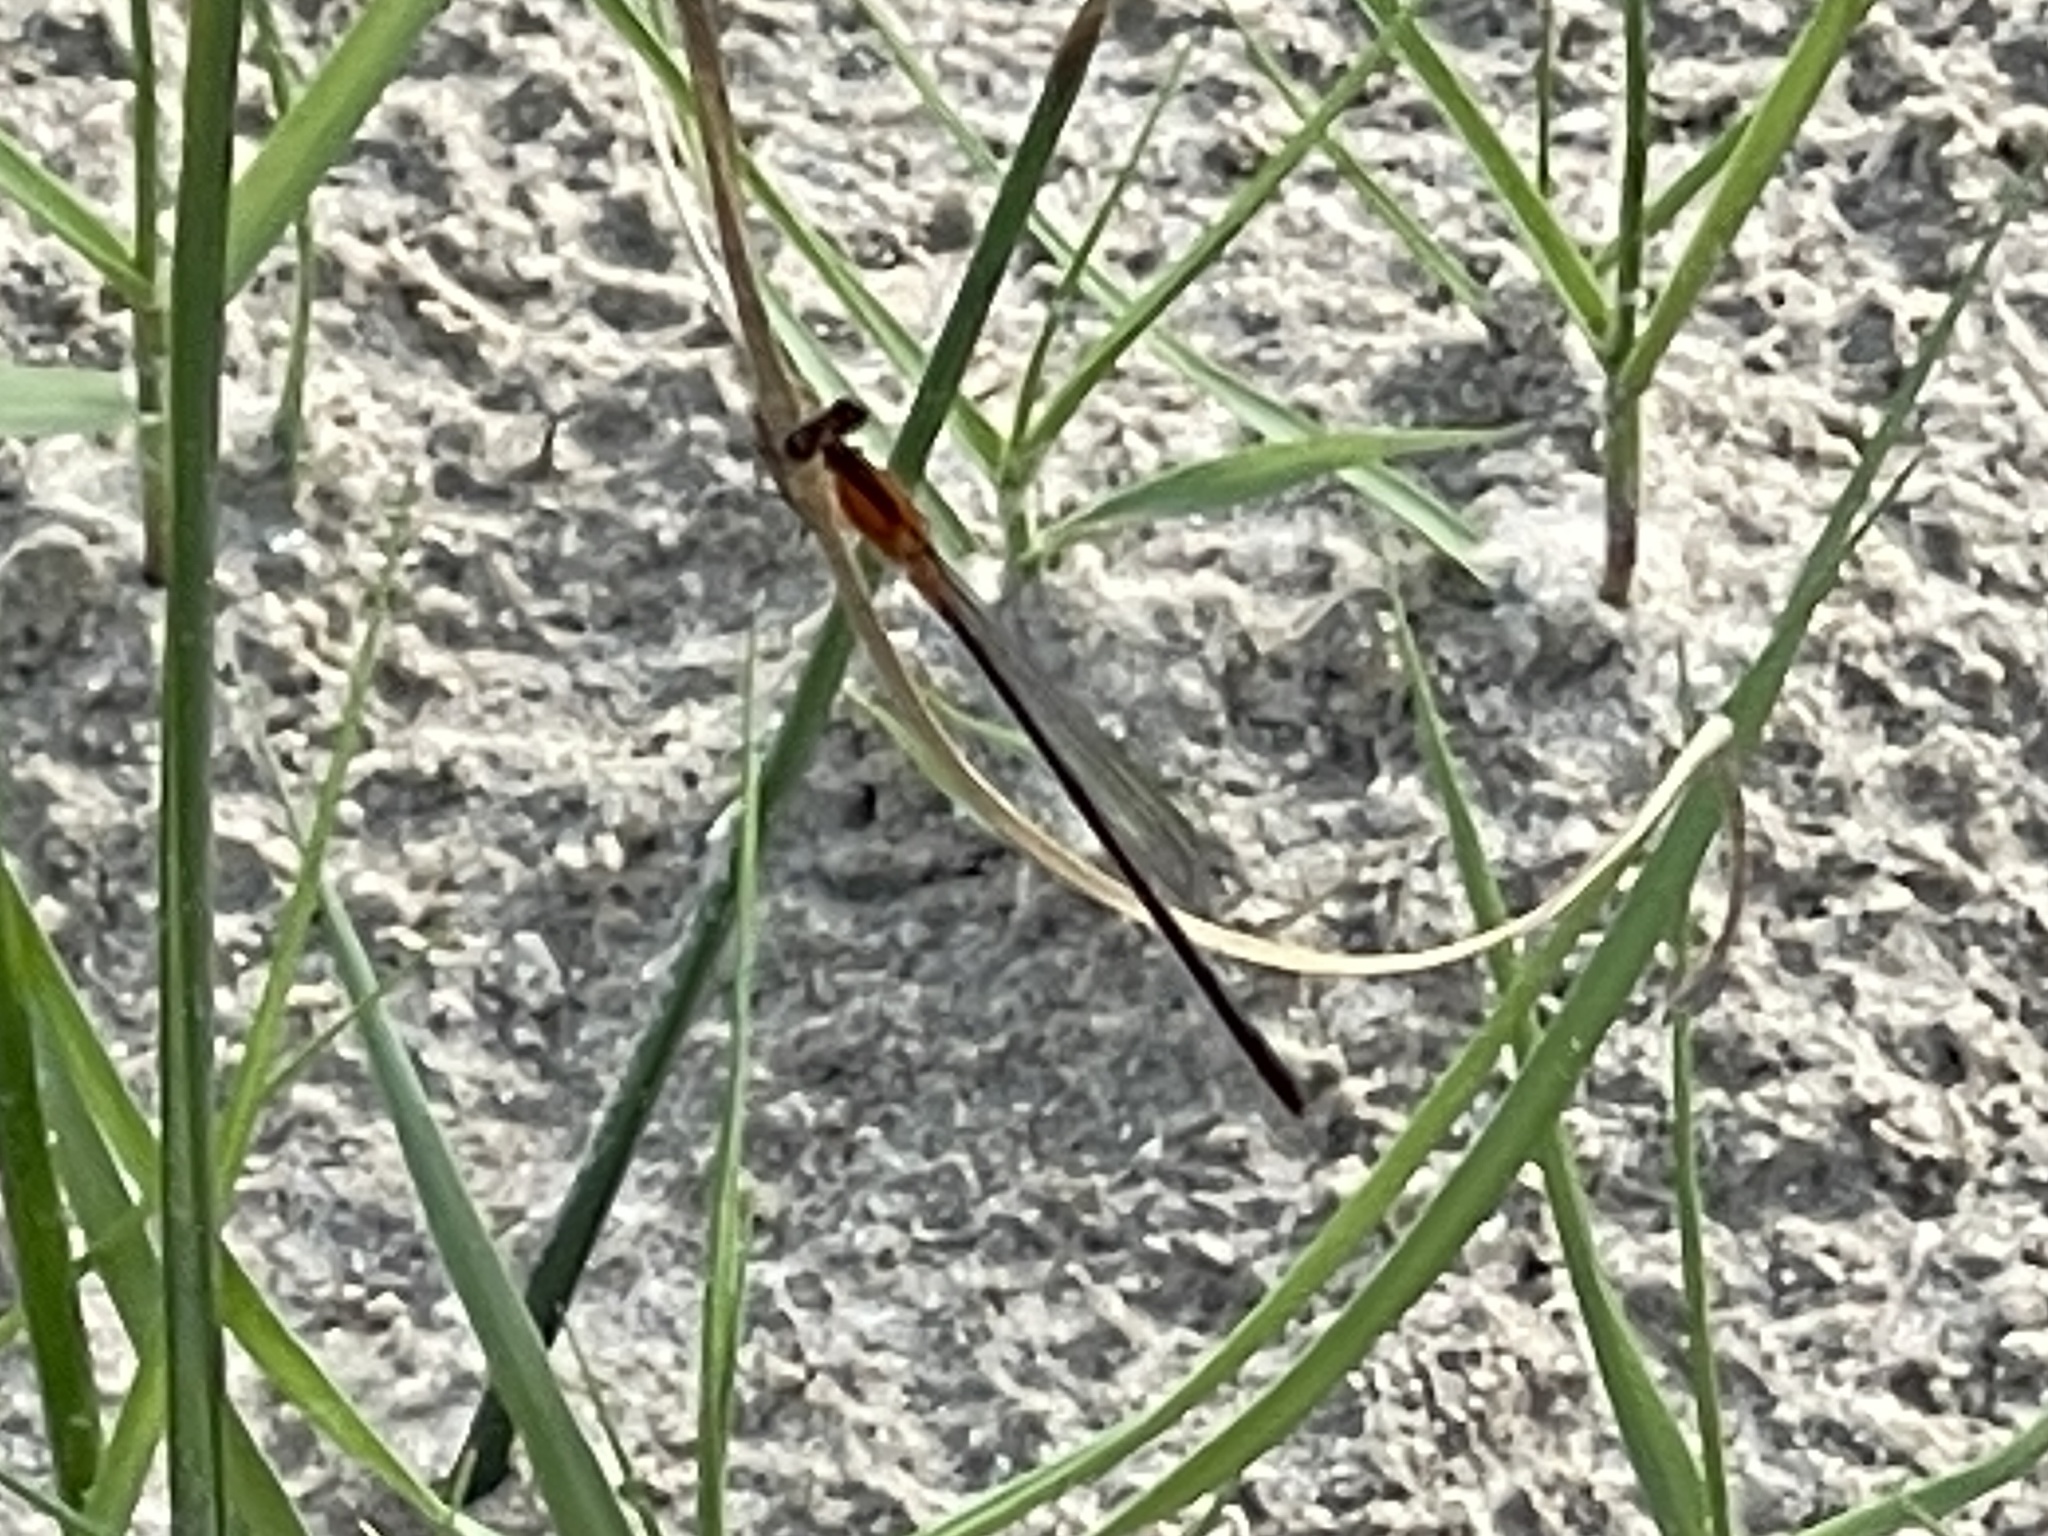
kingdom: Animalia
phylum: Arthropoda
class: Insecta
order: Odonata
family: Coenagrionidae
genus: Ischnura
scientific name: Ischnura ramburii
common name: Rambur's forktail
